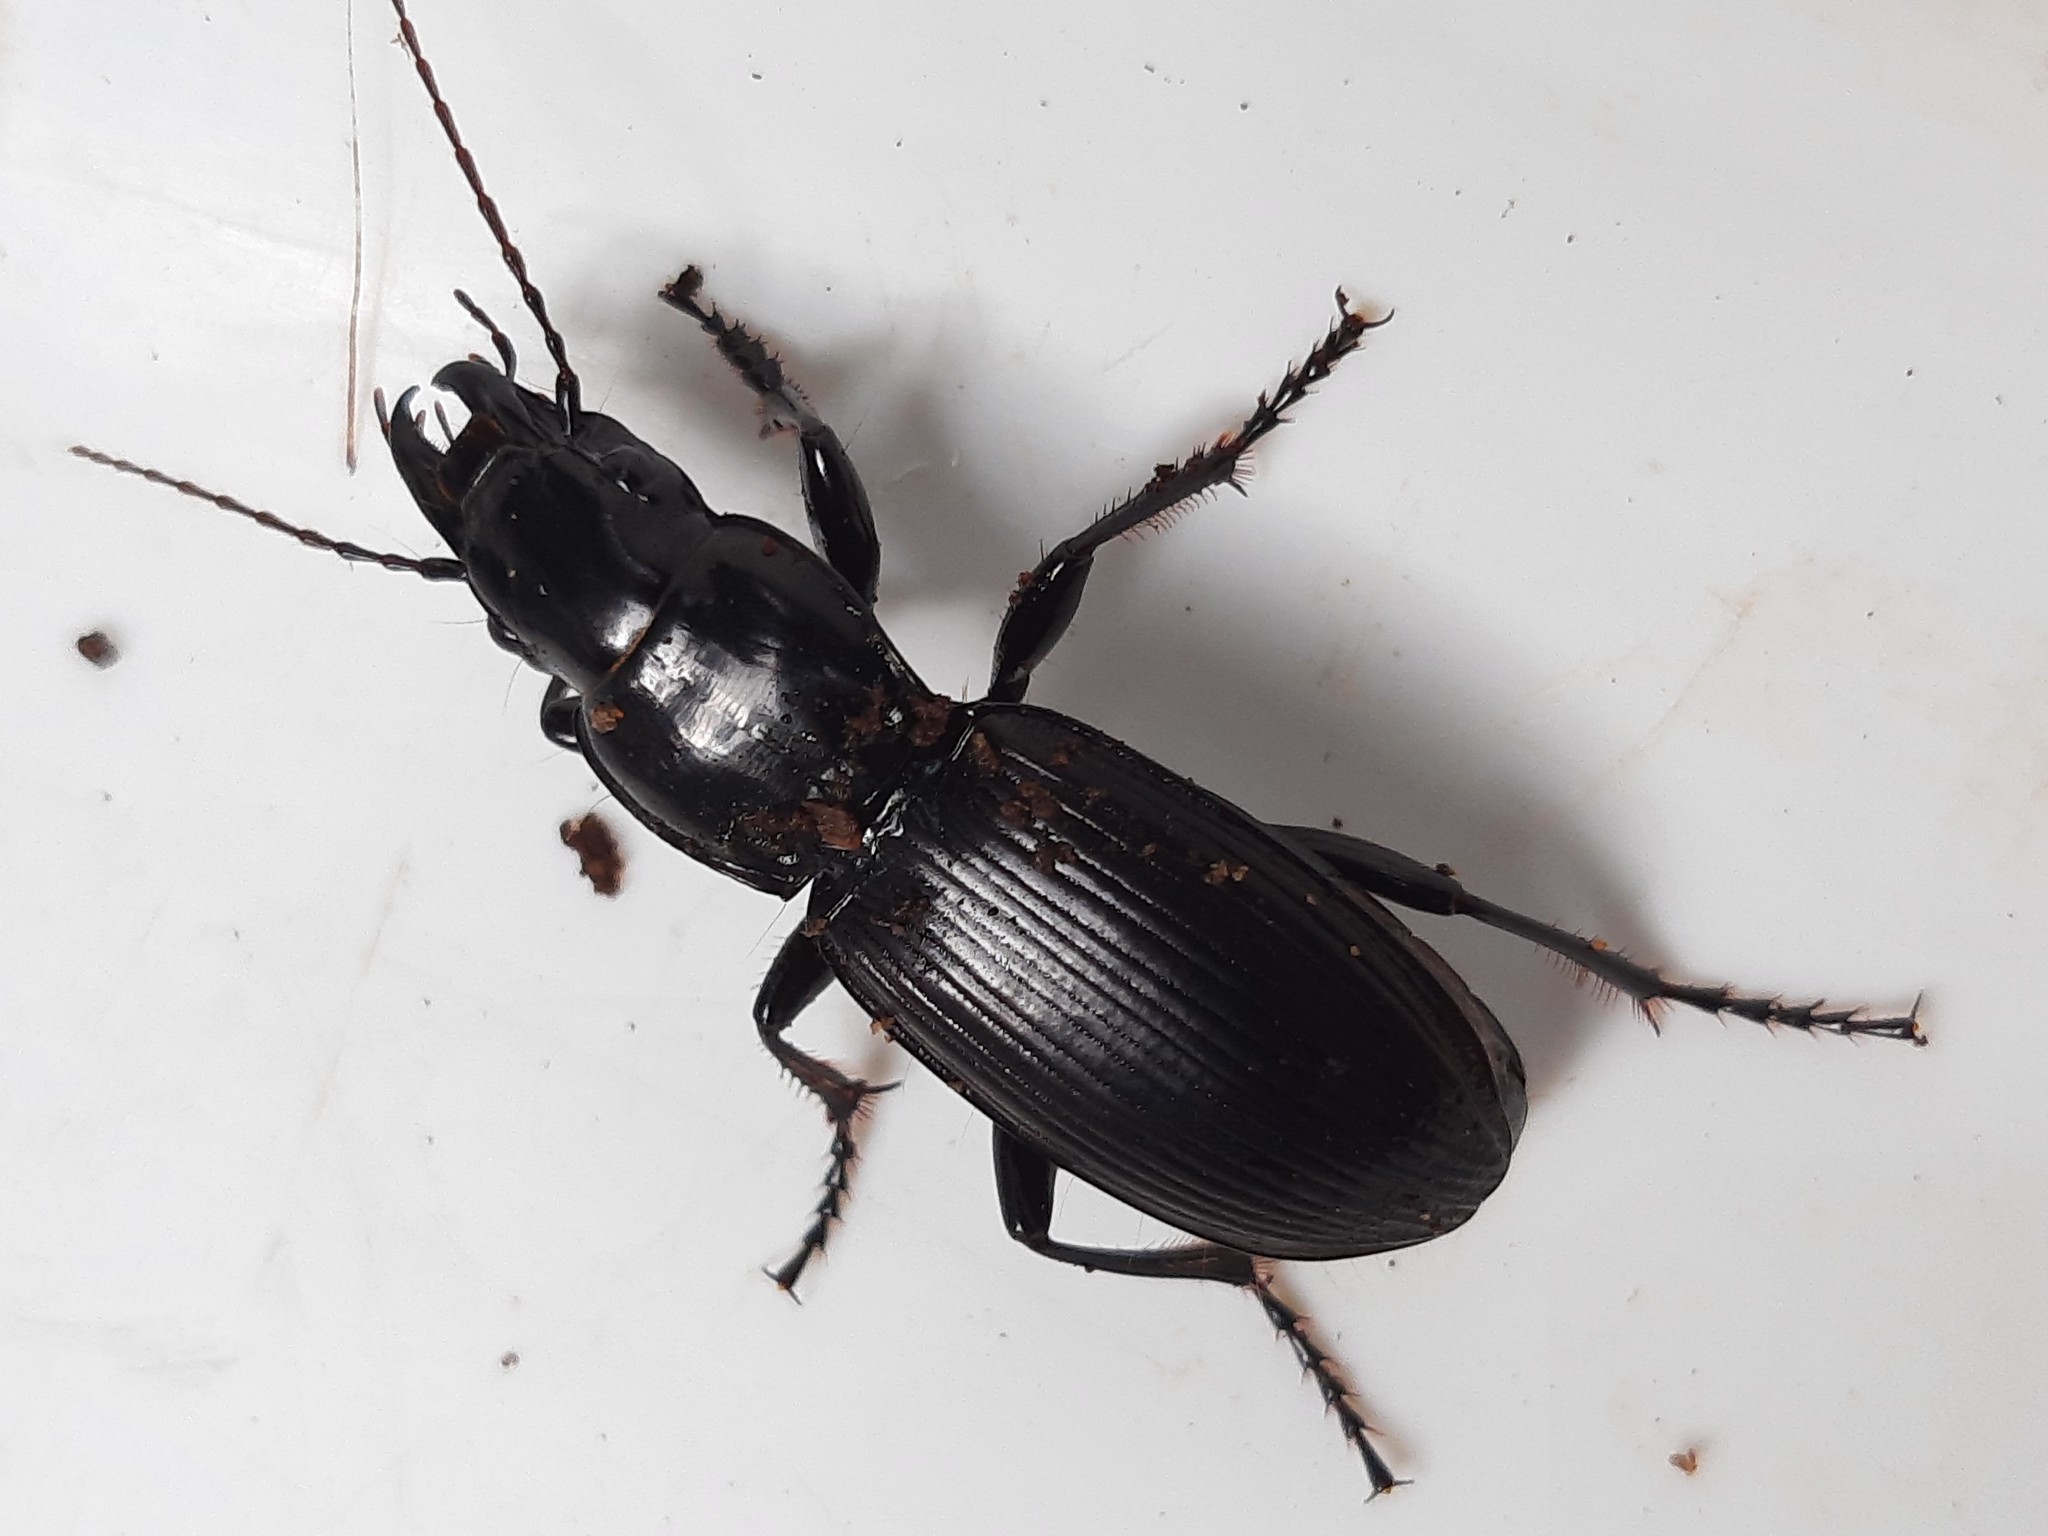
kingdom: Animalia
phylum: Arthropoda
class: Insecta
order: Coleoptera
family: Carabidae
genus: Plocamostethus
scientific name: Plocamostethus planiusculus
